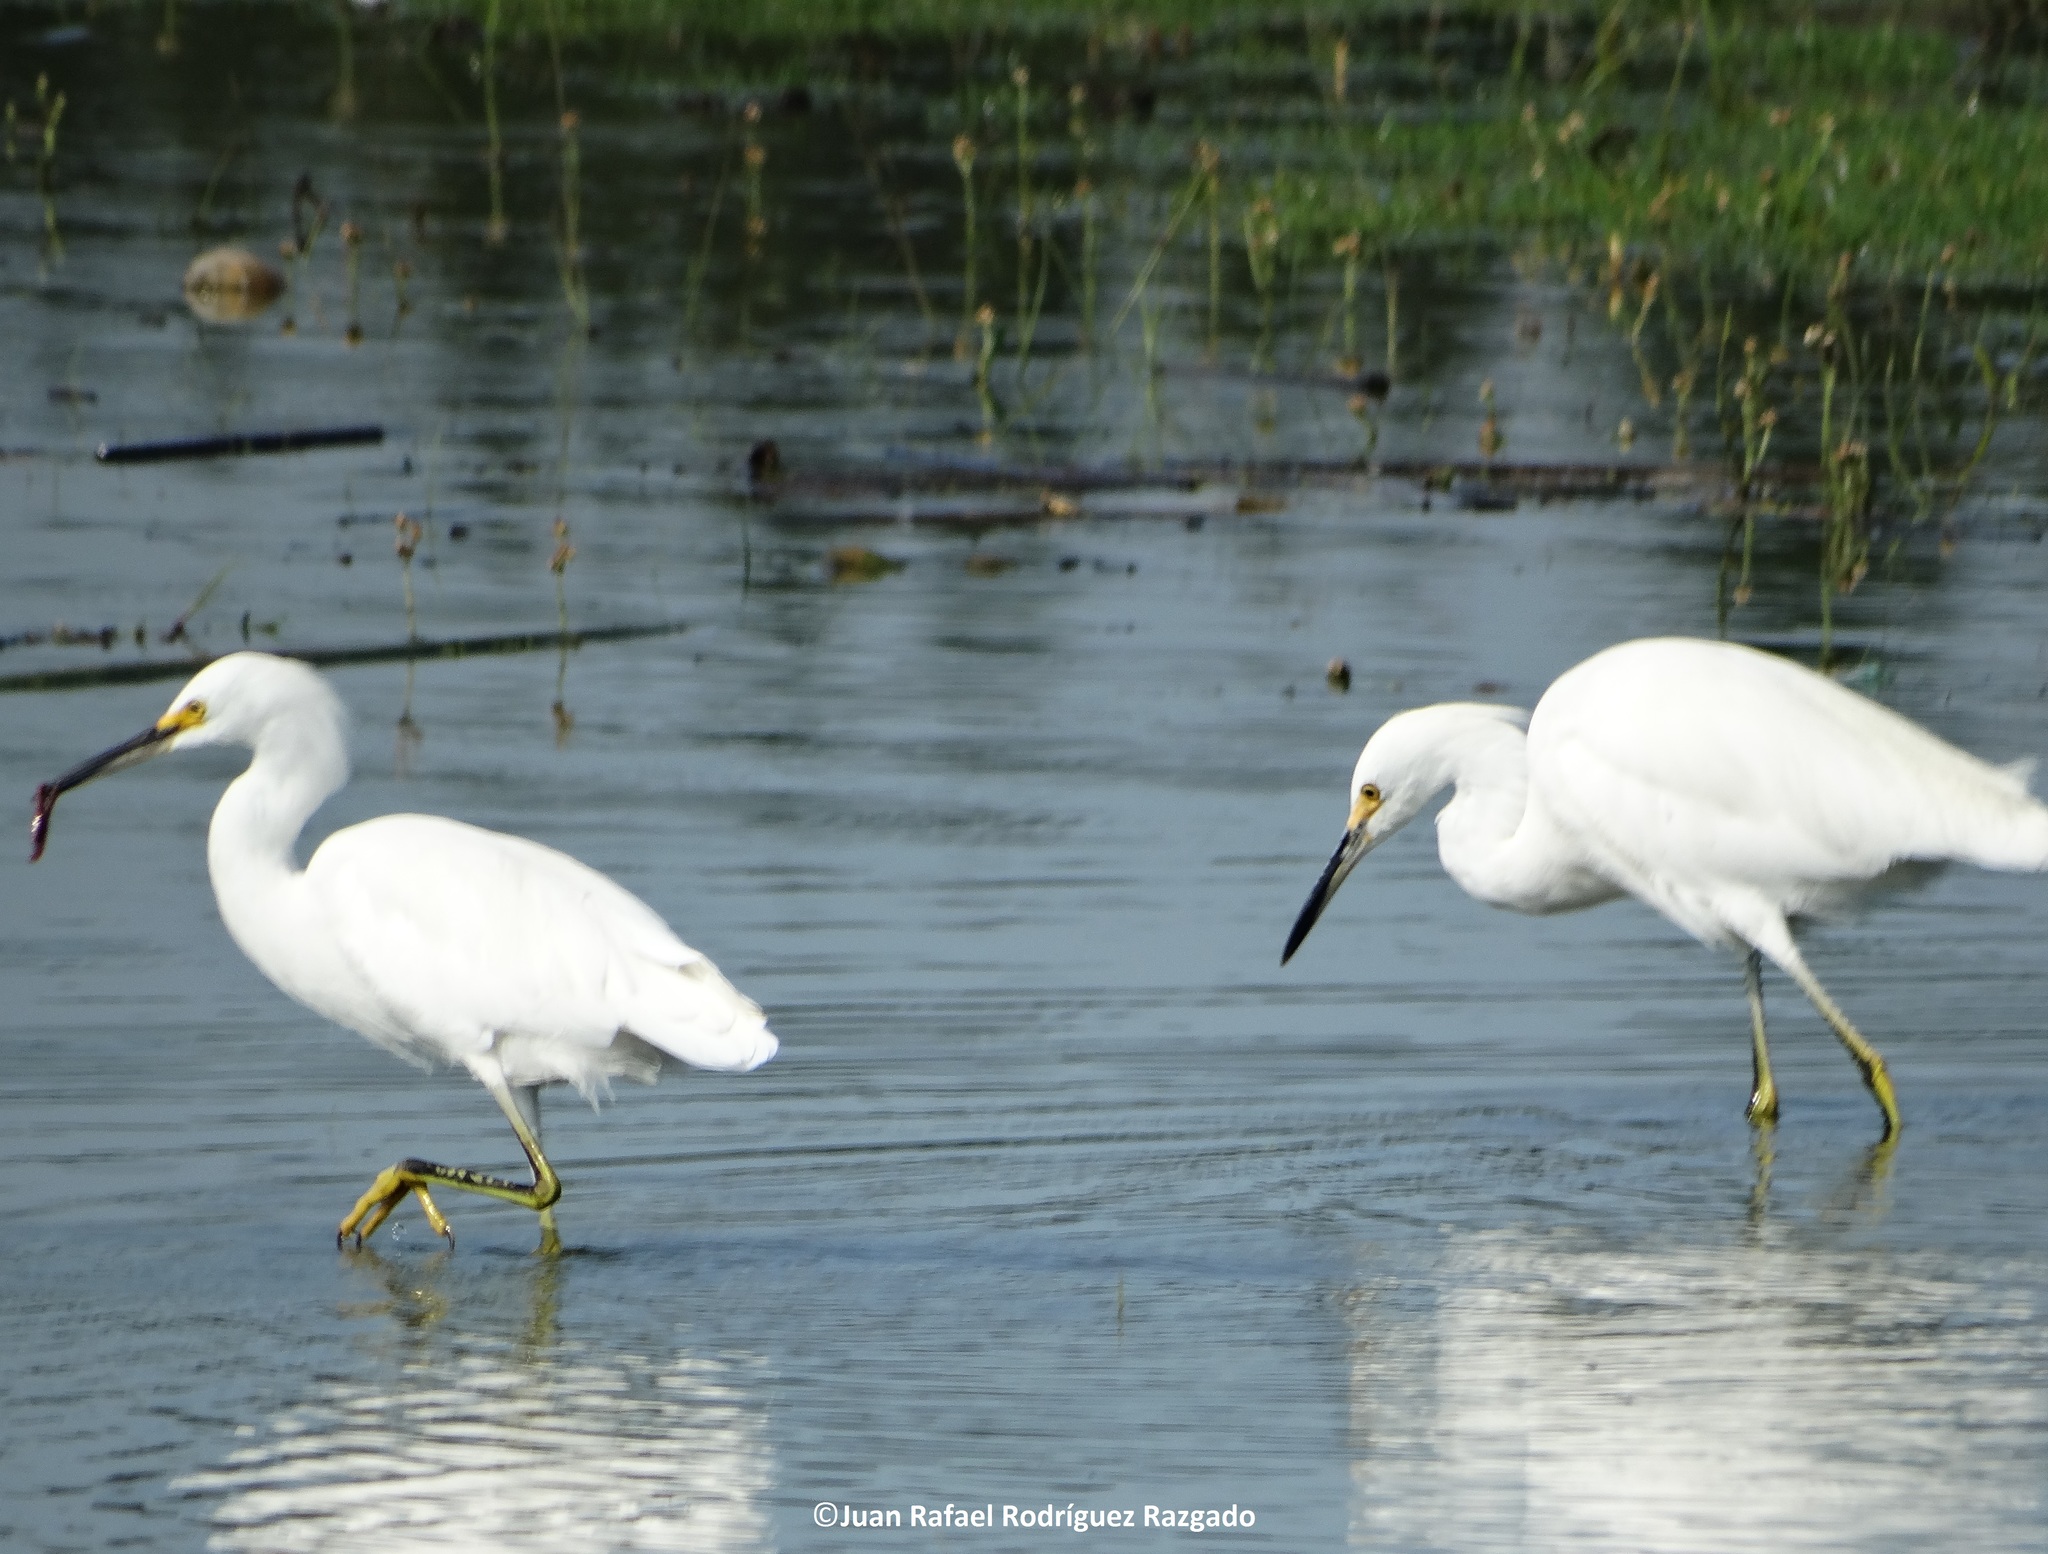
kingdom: Animalia
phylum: Chordata
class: Aves
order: Pelecaniformes
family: Ardeidae
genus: Egretta
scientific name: Egretta thula
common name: Snowy egret
